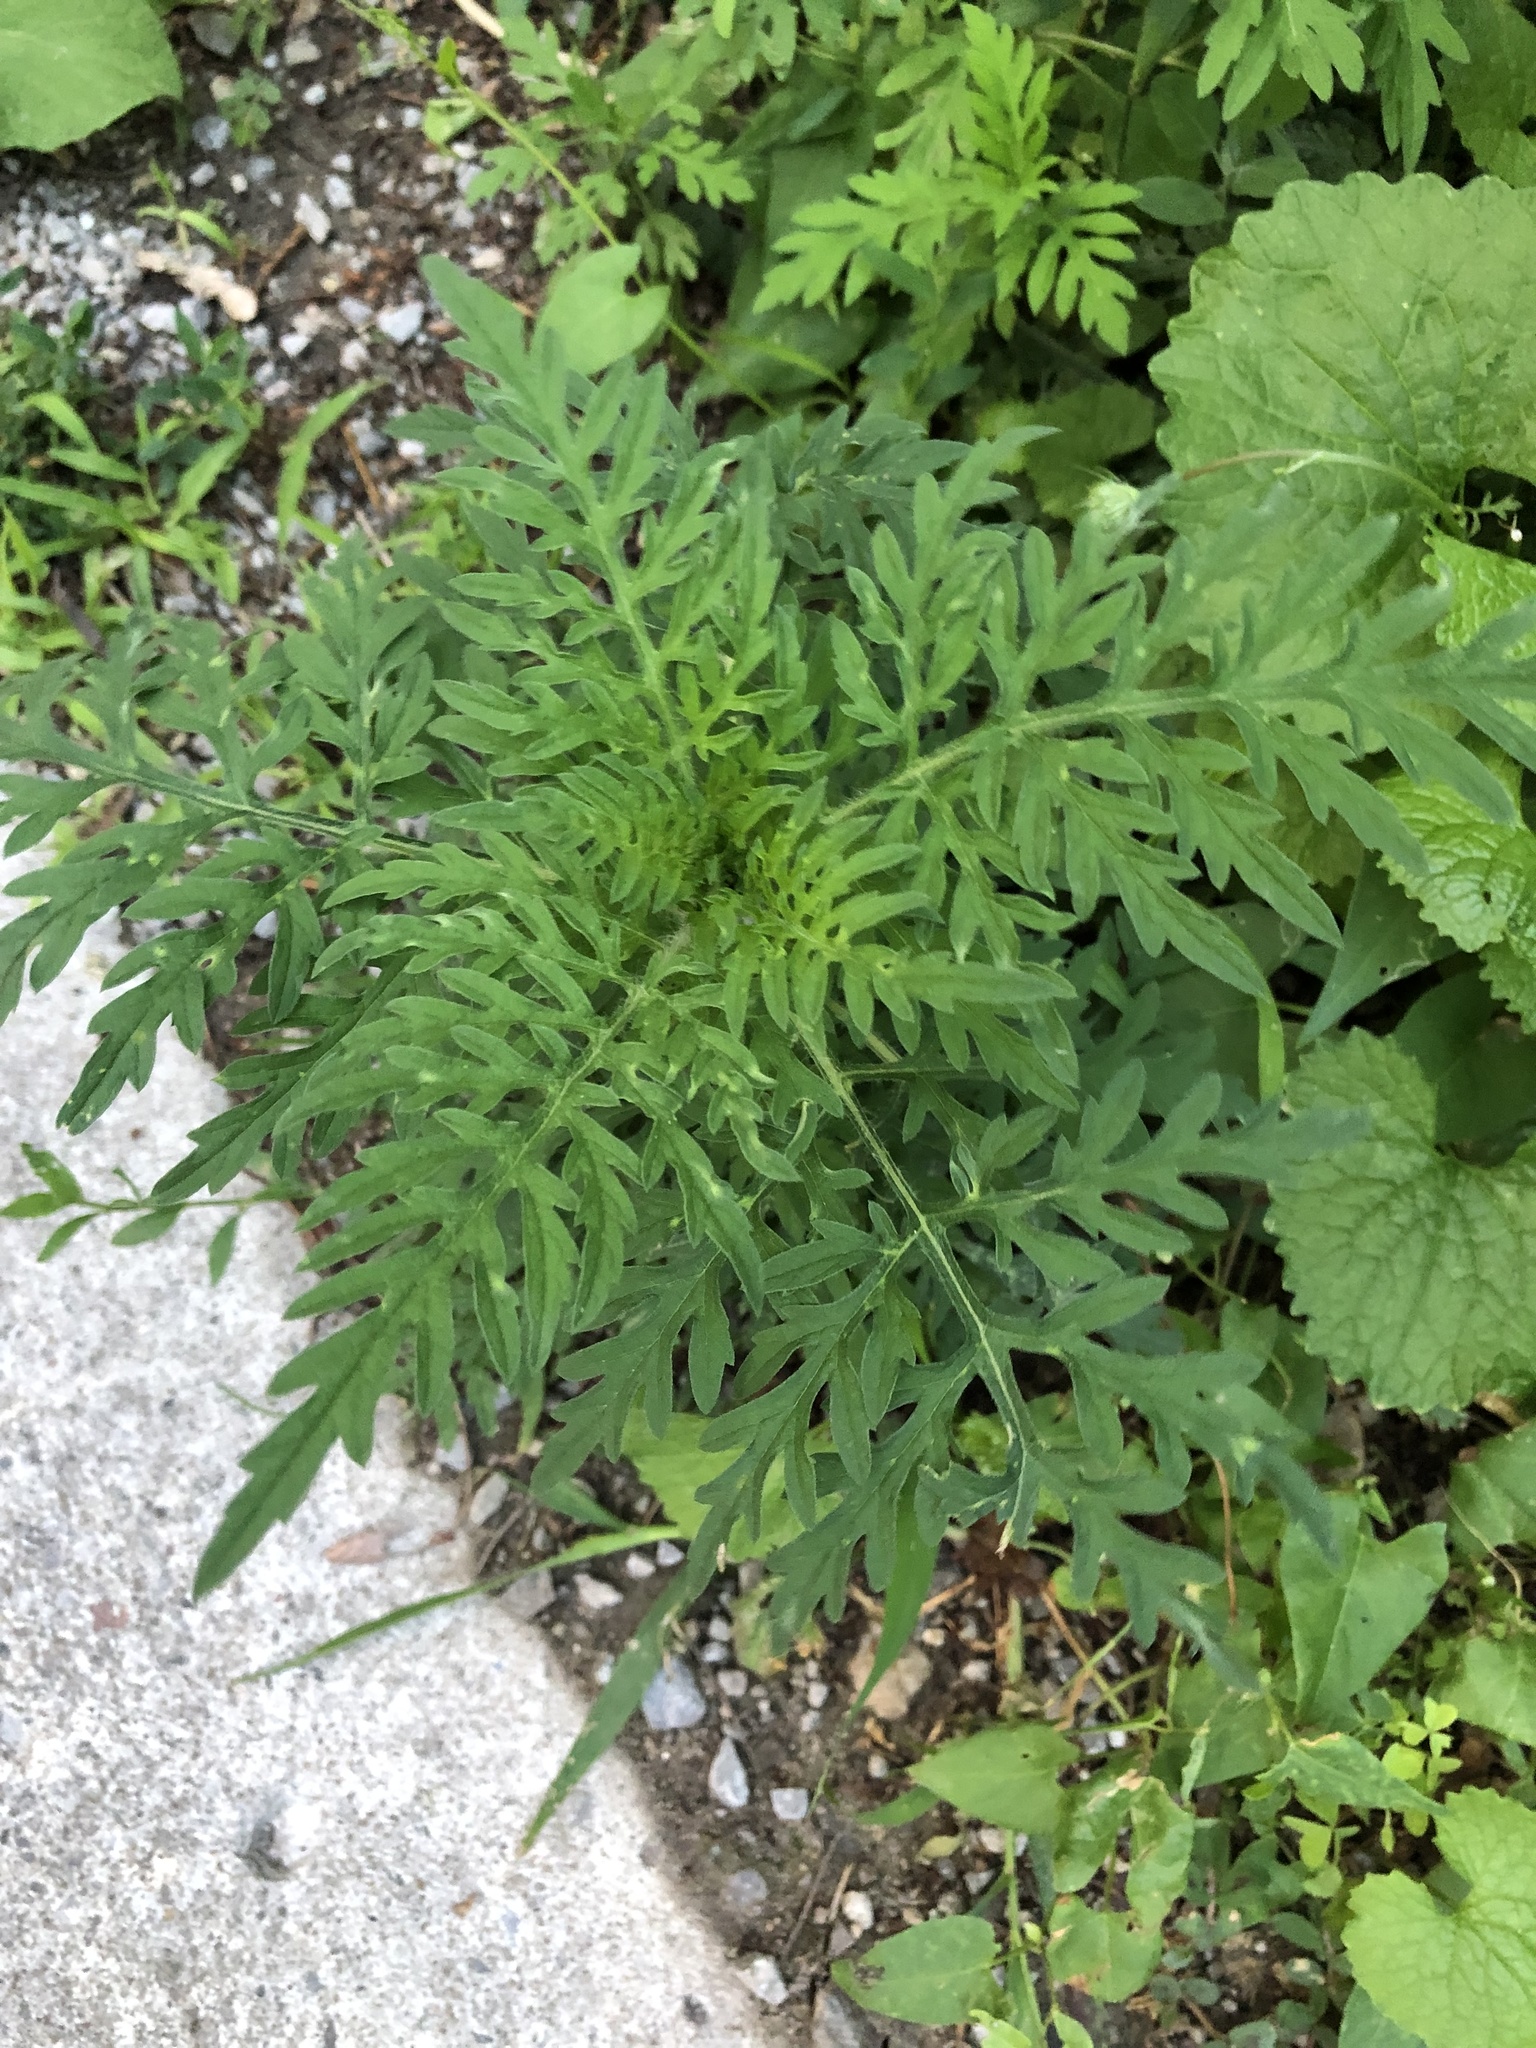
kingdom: Plantae
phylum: Tracheophyta
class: Magnoliopsida
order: Asterales
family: Asteraceae
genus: Ambrosia
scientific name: Ambrosia artemisiifolia
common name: Annual ragweed
